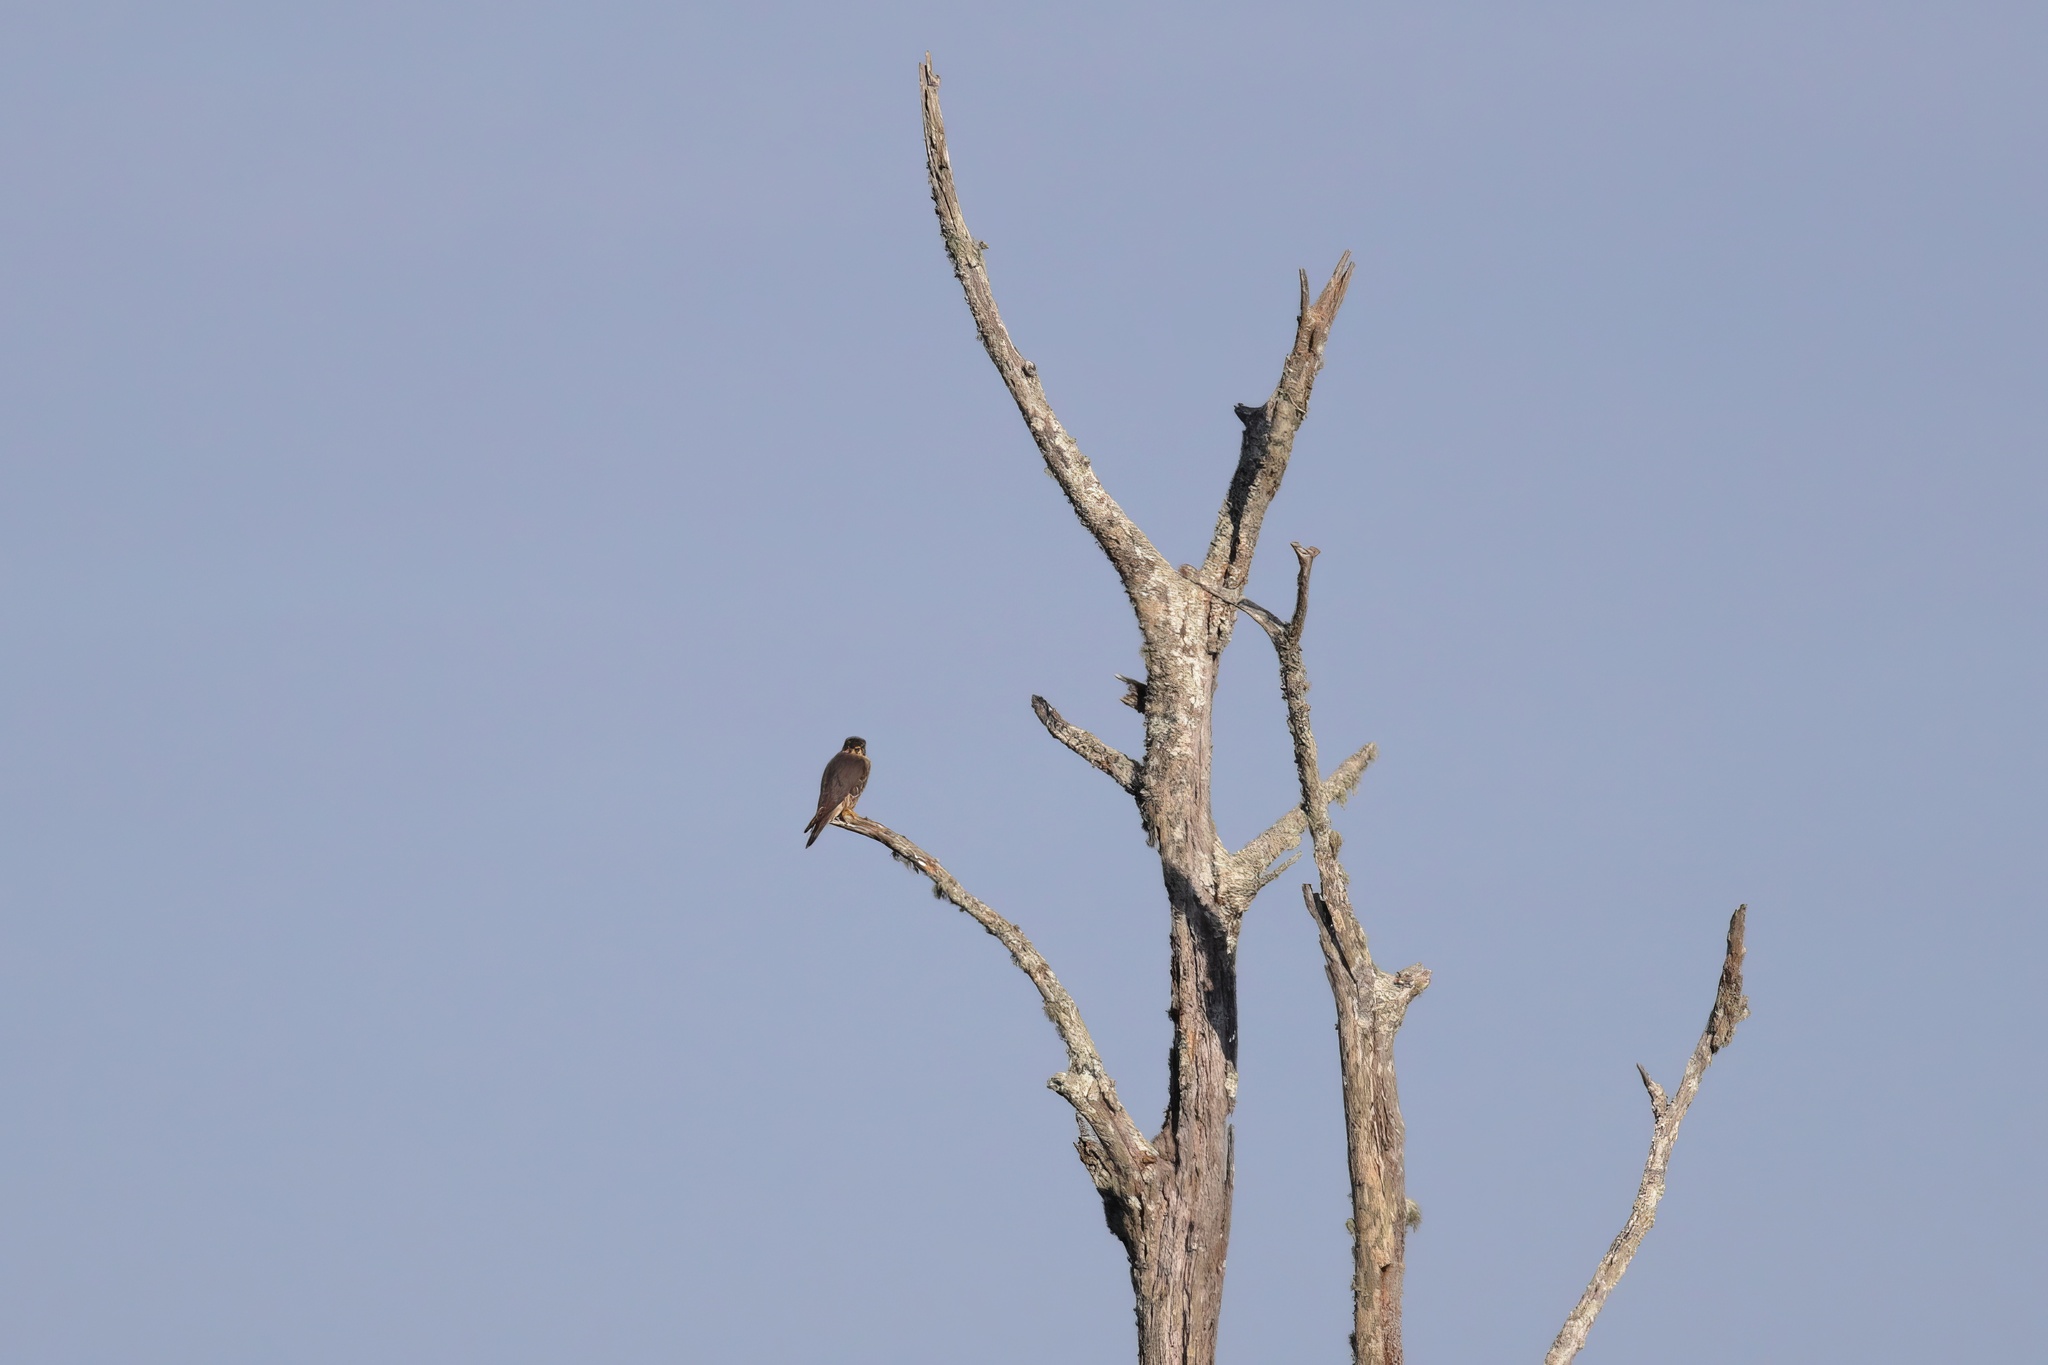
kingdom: Animalia
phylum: Chordata
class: Aves
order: Falconiformes
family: Falconidae
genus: Falco
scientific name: Falco columbarius
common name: Merlin
